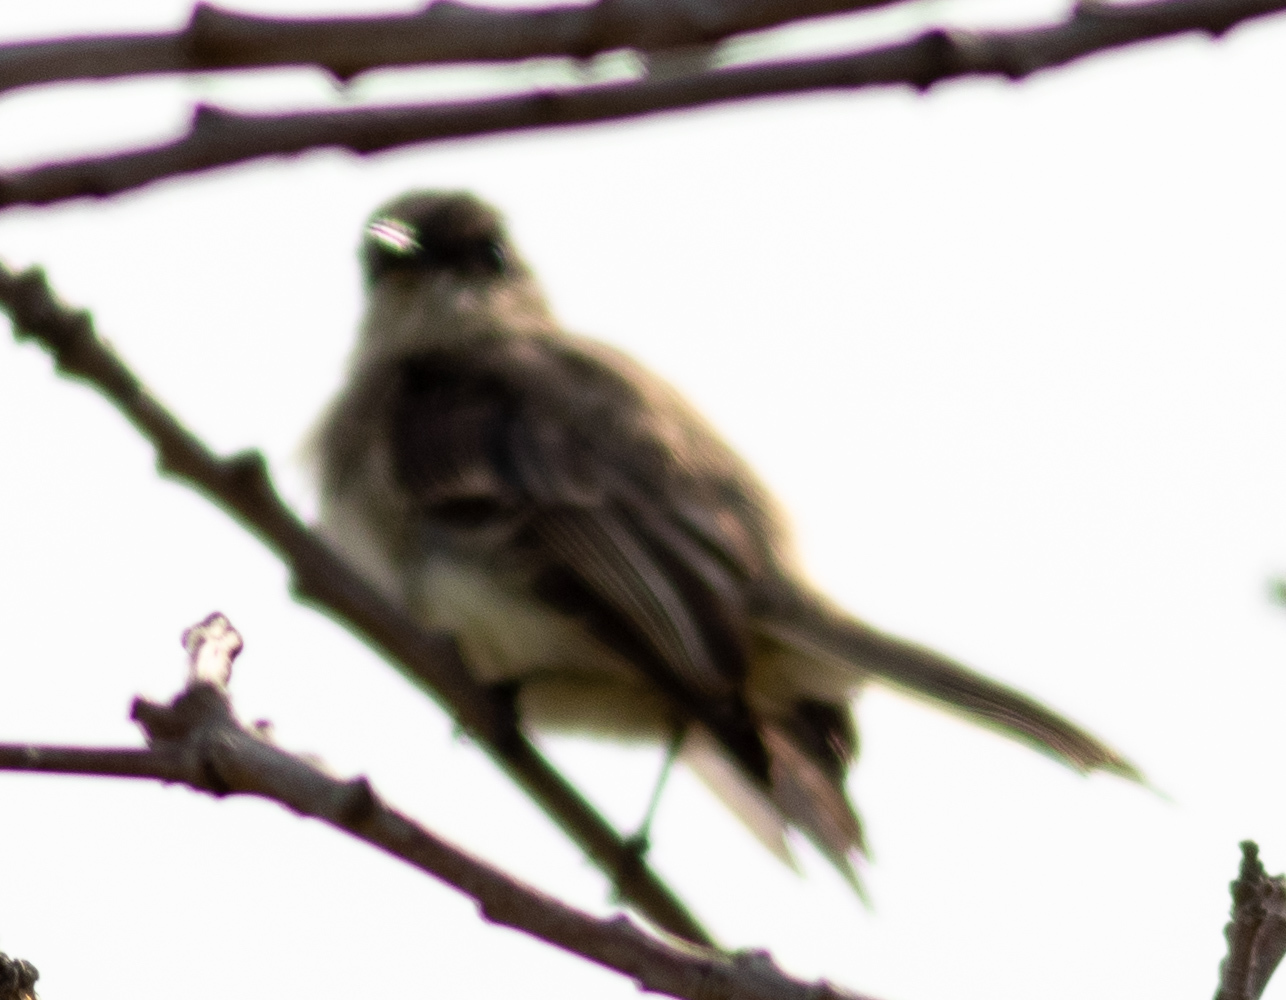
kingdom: Animalia
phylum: Chordata
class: Aves
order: Passeriformes
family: Tyrannidae
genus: Sayornis
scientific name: Sayornis phoebe
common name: Eastern phoebe
